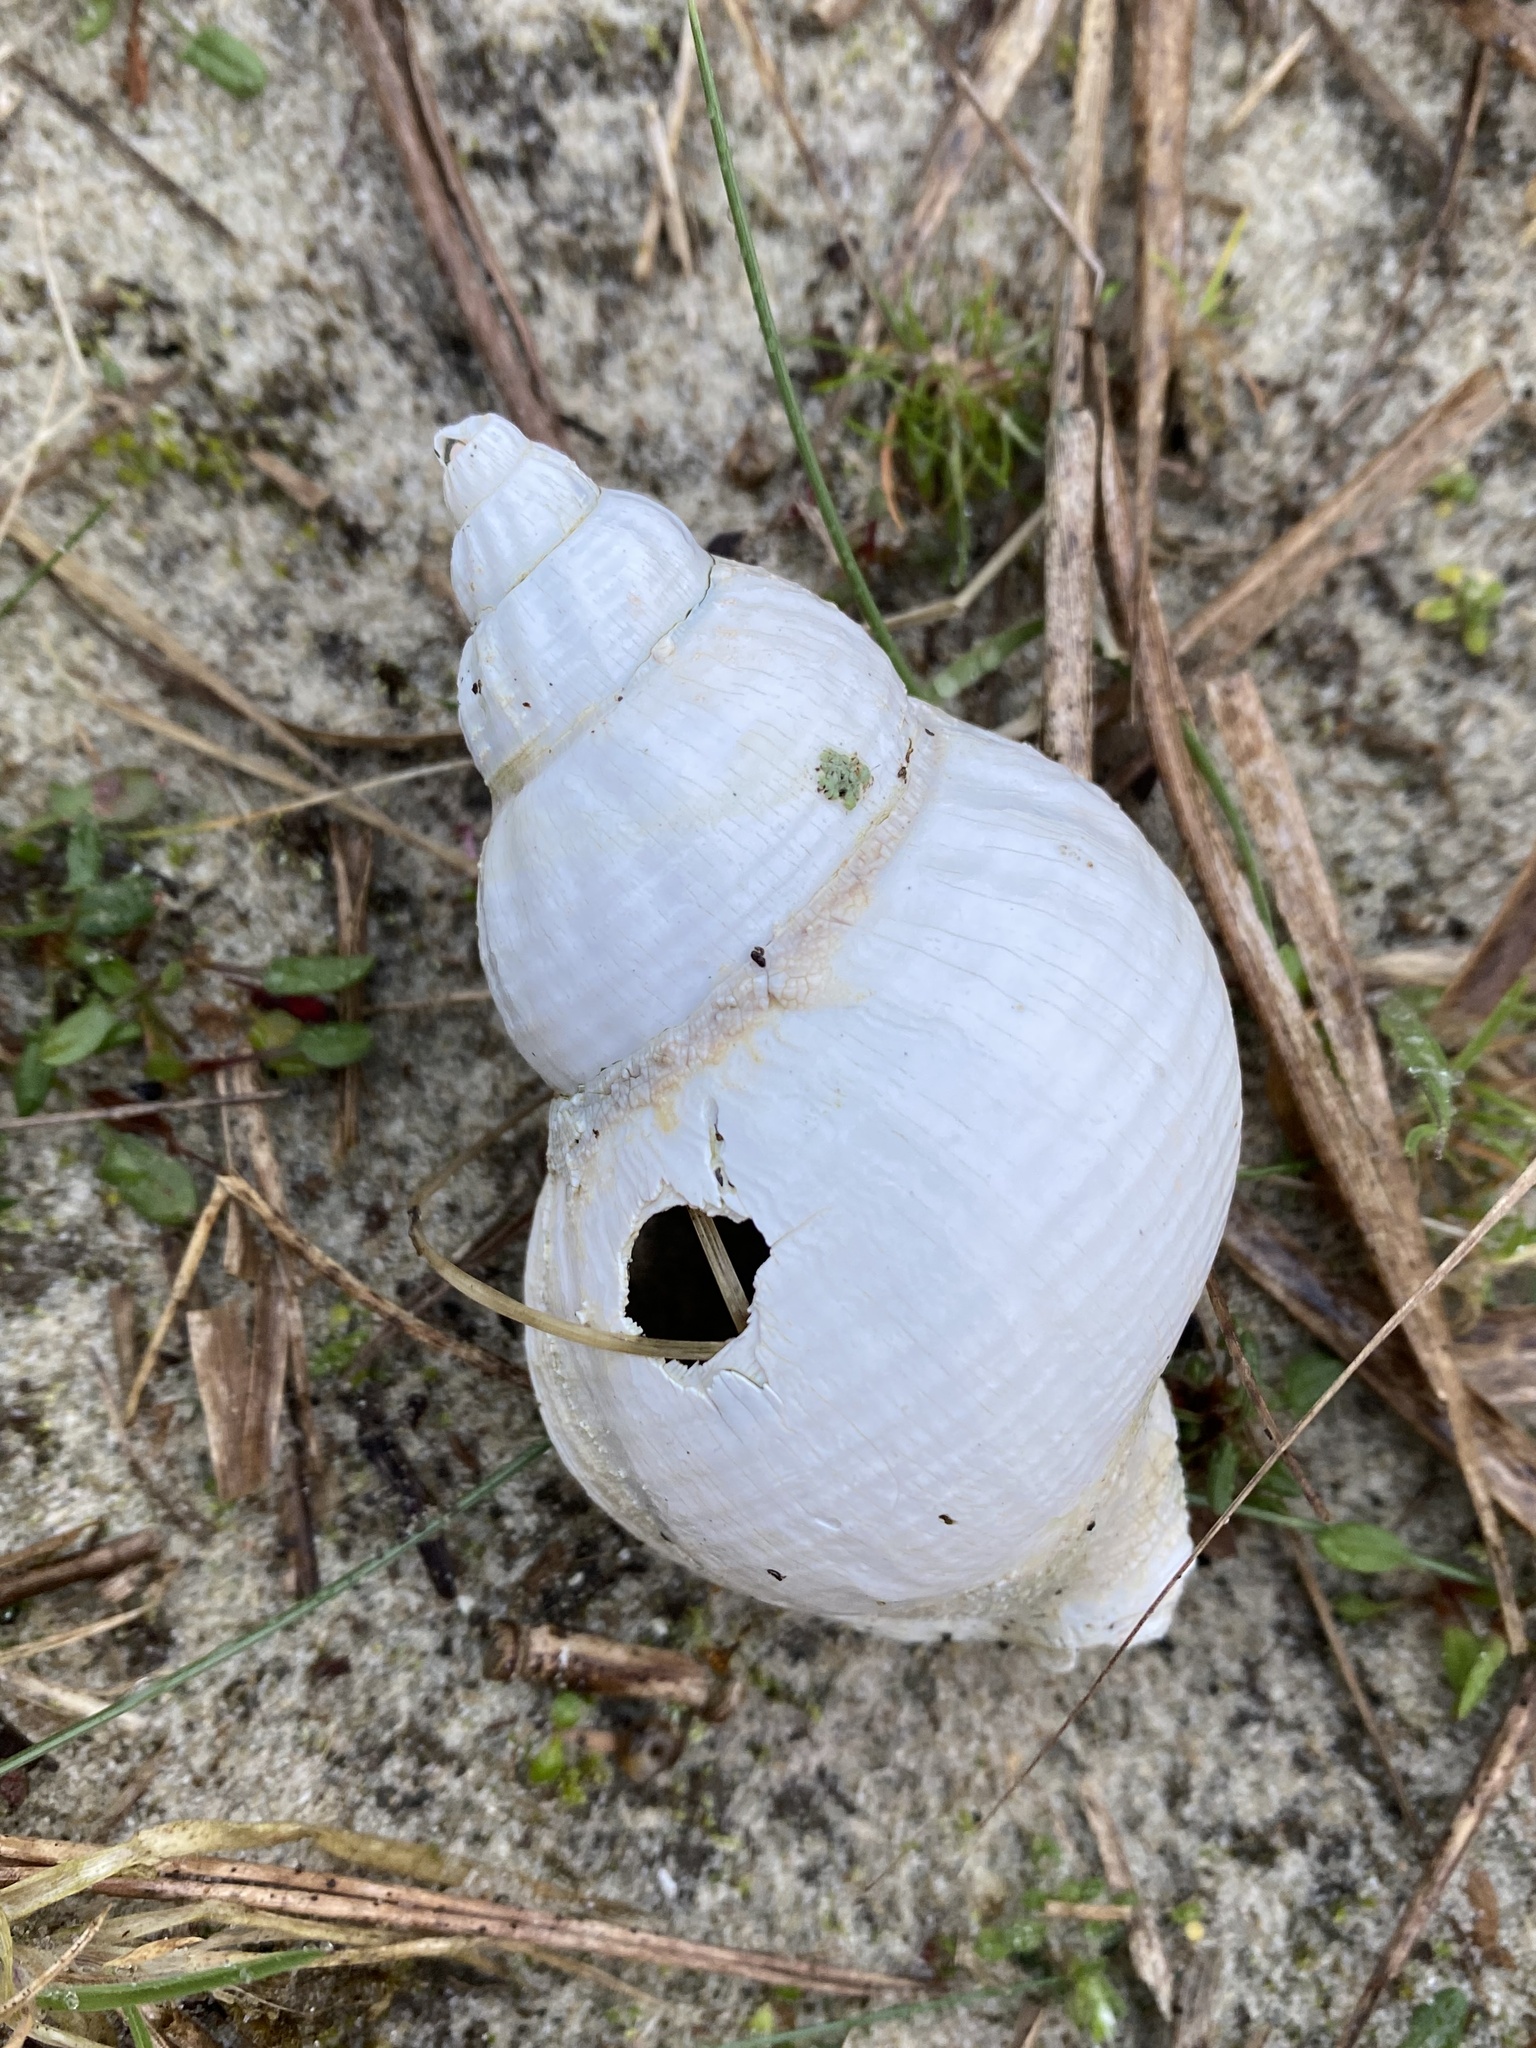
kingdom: Animalia
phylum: Mollusca
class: Gastropoda
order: Neogastropoda
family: Buccinidae
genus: Buccinum
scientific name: Buccinum undatum
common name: Common whelk
